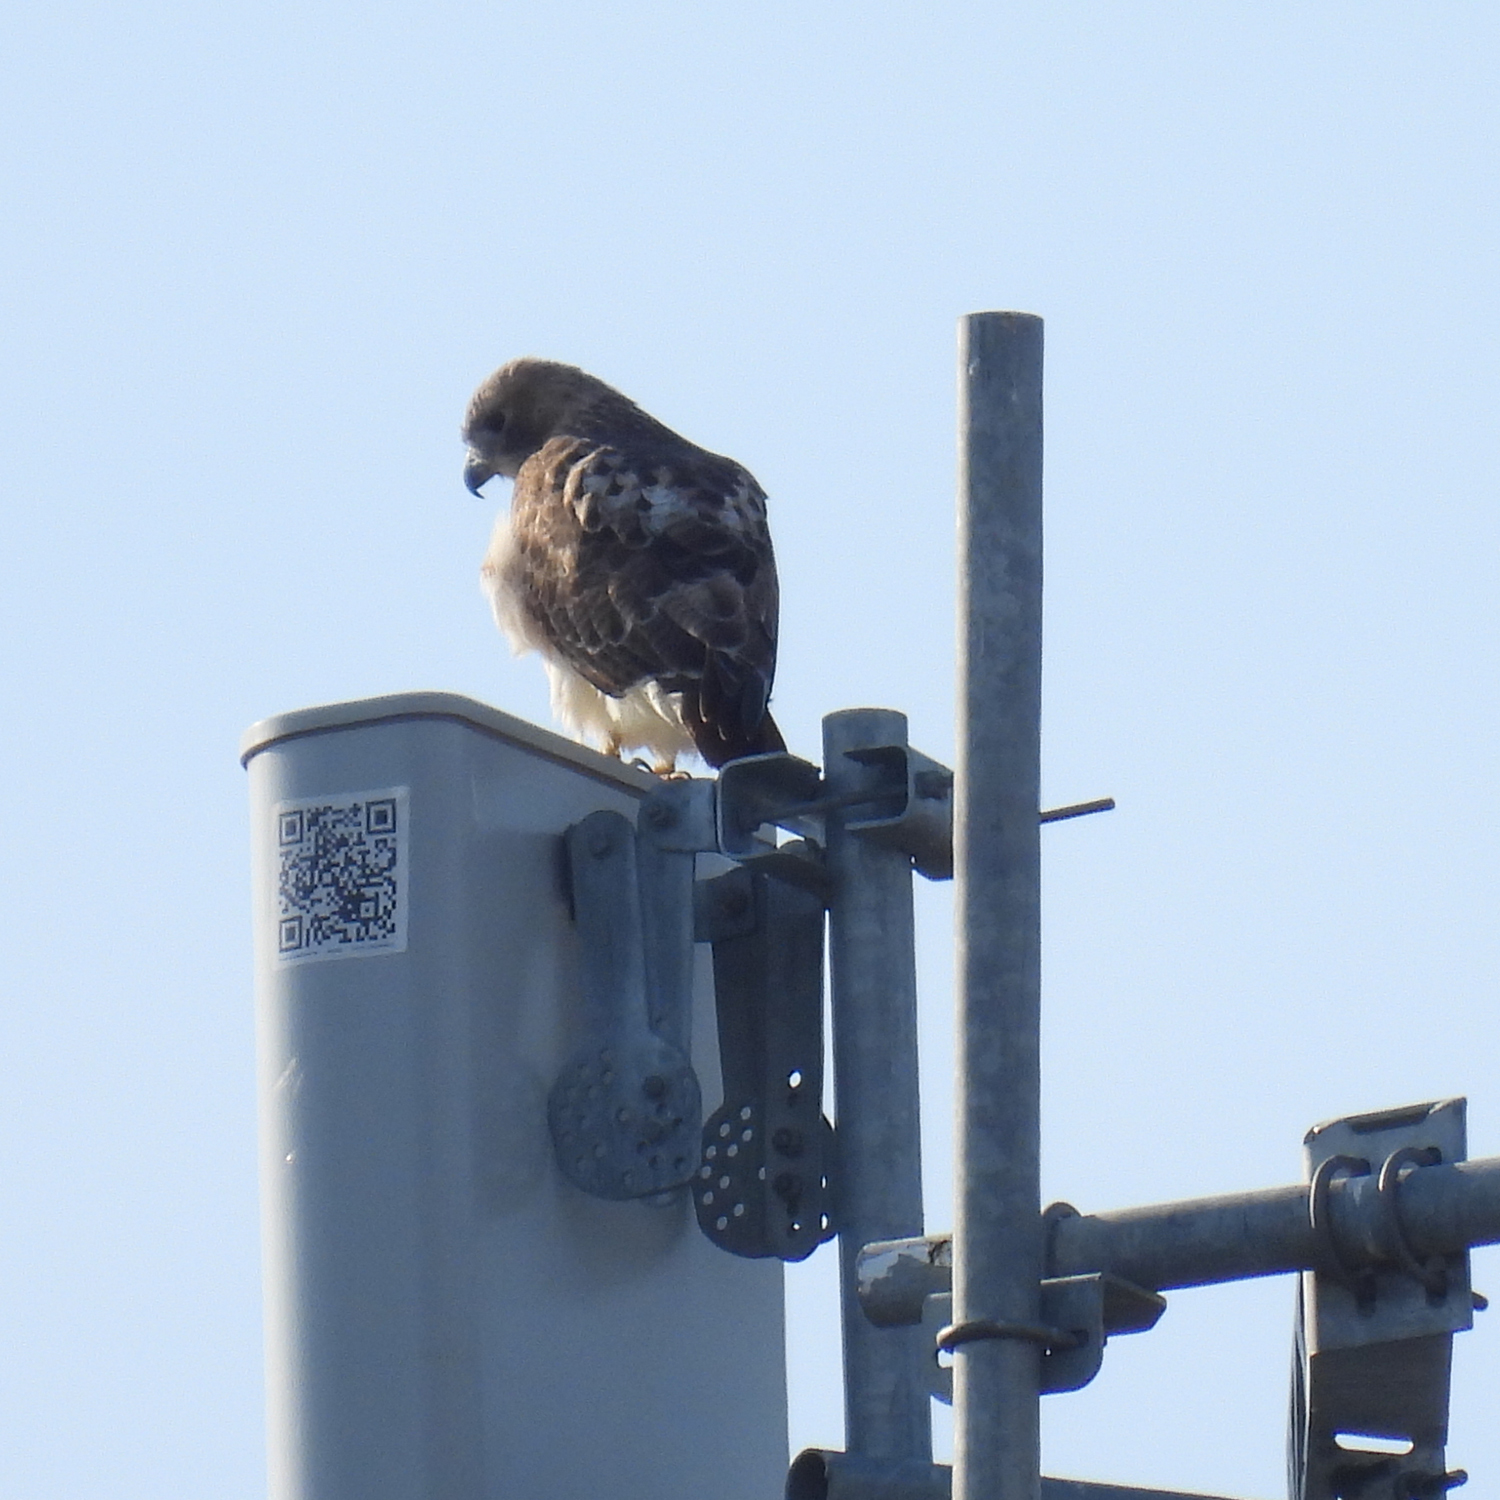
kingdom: Animalia
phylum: Chordata
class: Aves
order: Accipitriformes
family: Accipitridae
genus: Buteo
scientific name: Buteo jamaicensis
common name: Red-tailed hawk
